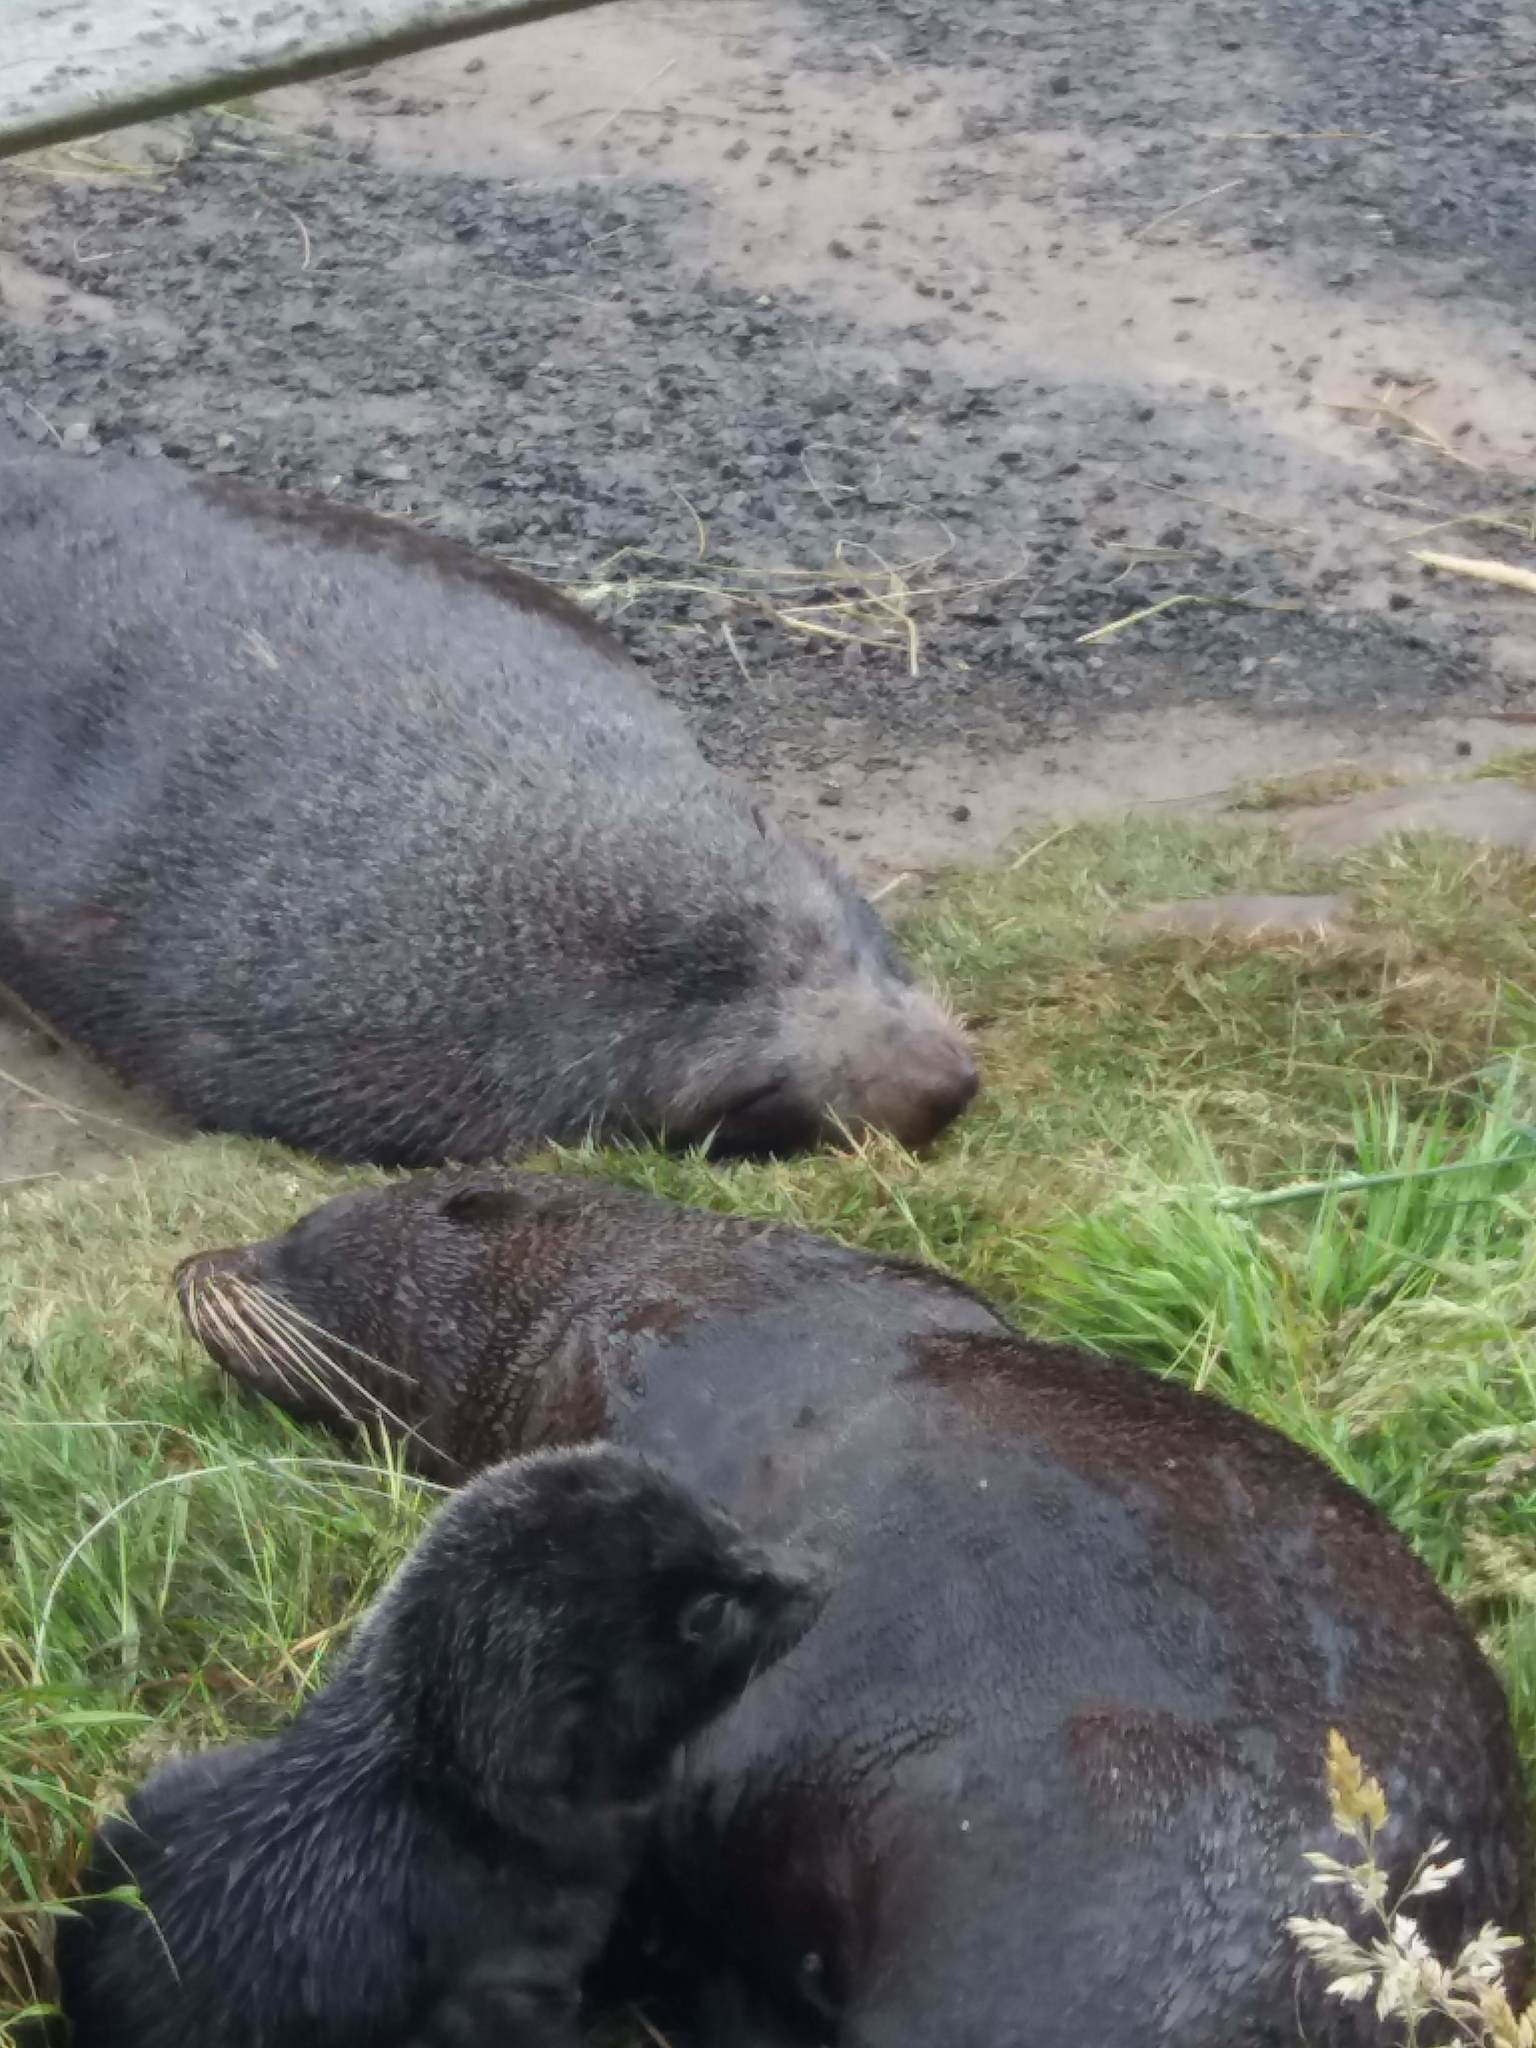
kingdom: Animalia
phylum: Chordata
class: Mammalia
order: Carnivora
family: Otariidae
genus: Arctocephalus
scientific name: Arctocephalus forsteri
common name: New zealand fur seal
